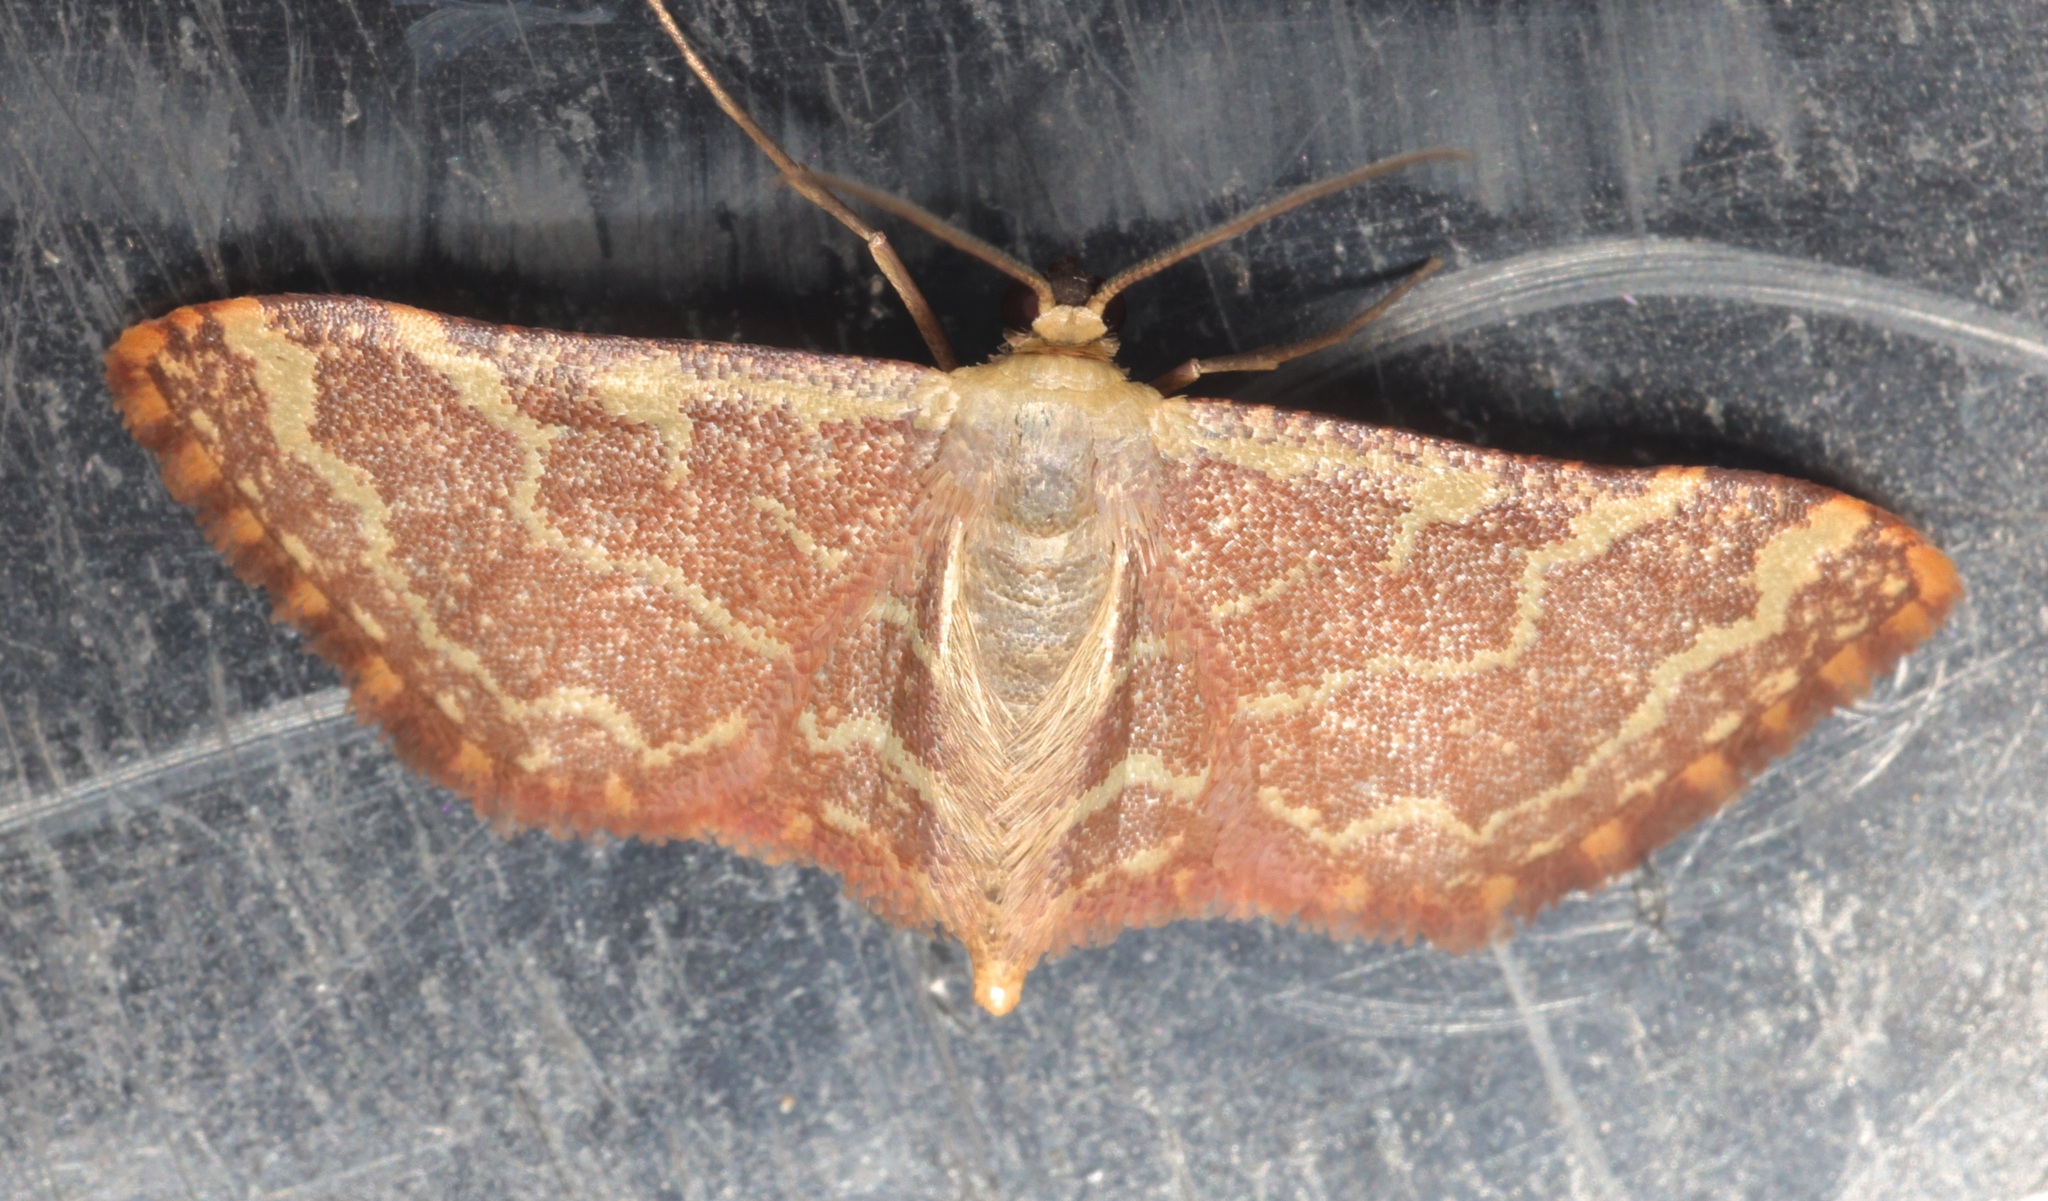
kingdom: Animalia
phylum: Arthropoda
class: Insecta
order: Lepidoptera
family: Geometridae
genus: Lophophleps
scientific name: Lophophleps purpurea
